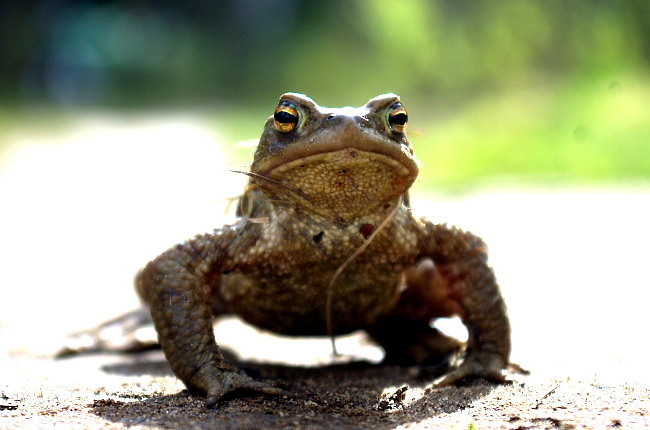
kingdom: Animalia
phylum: Chordata
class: Amphibia
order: Anura
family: Bufonidae
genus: Bufo
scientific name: Bufo bufo
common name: Common toad
